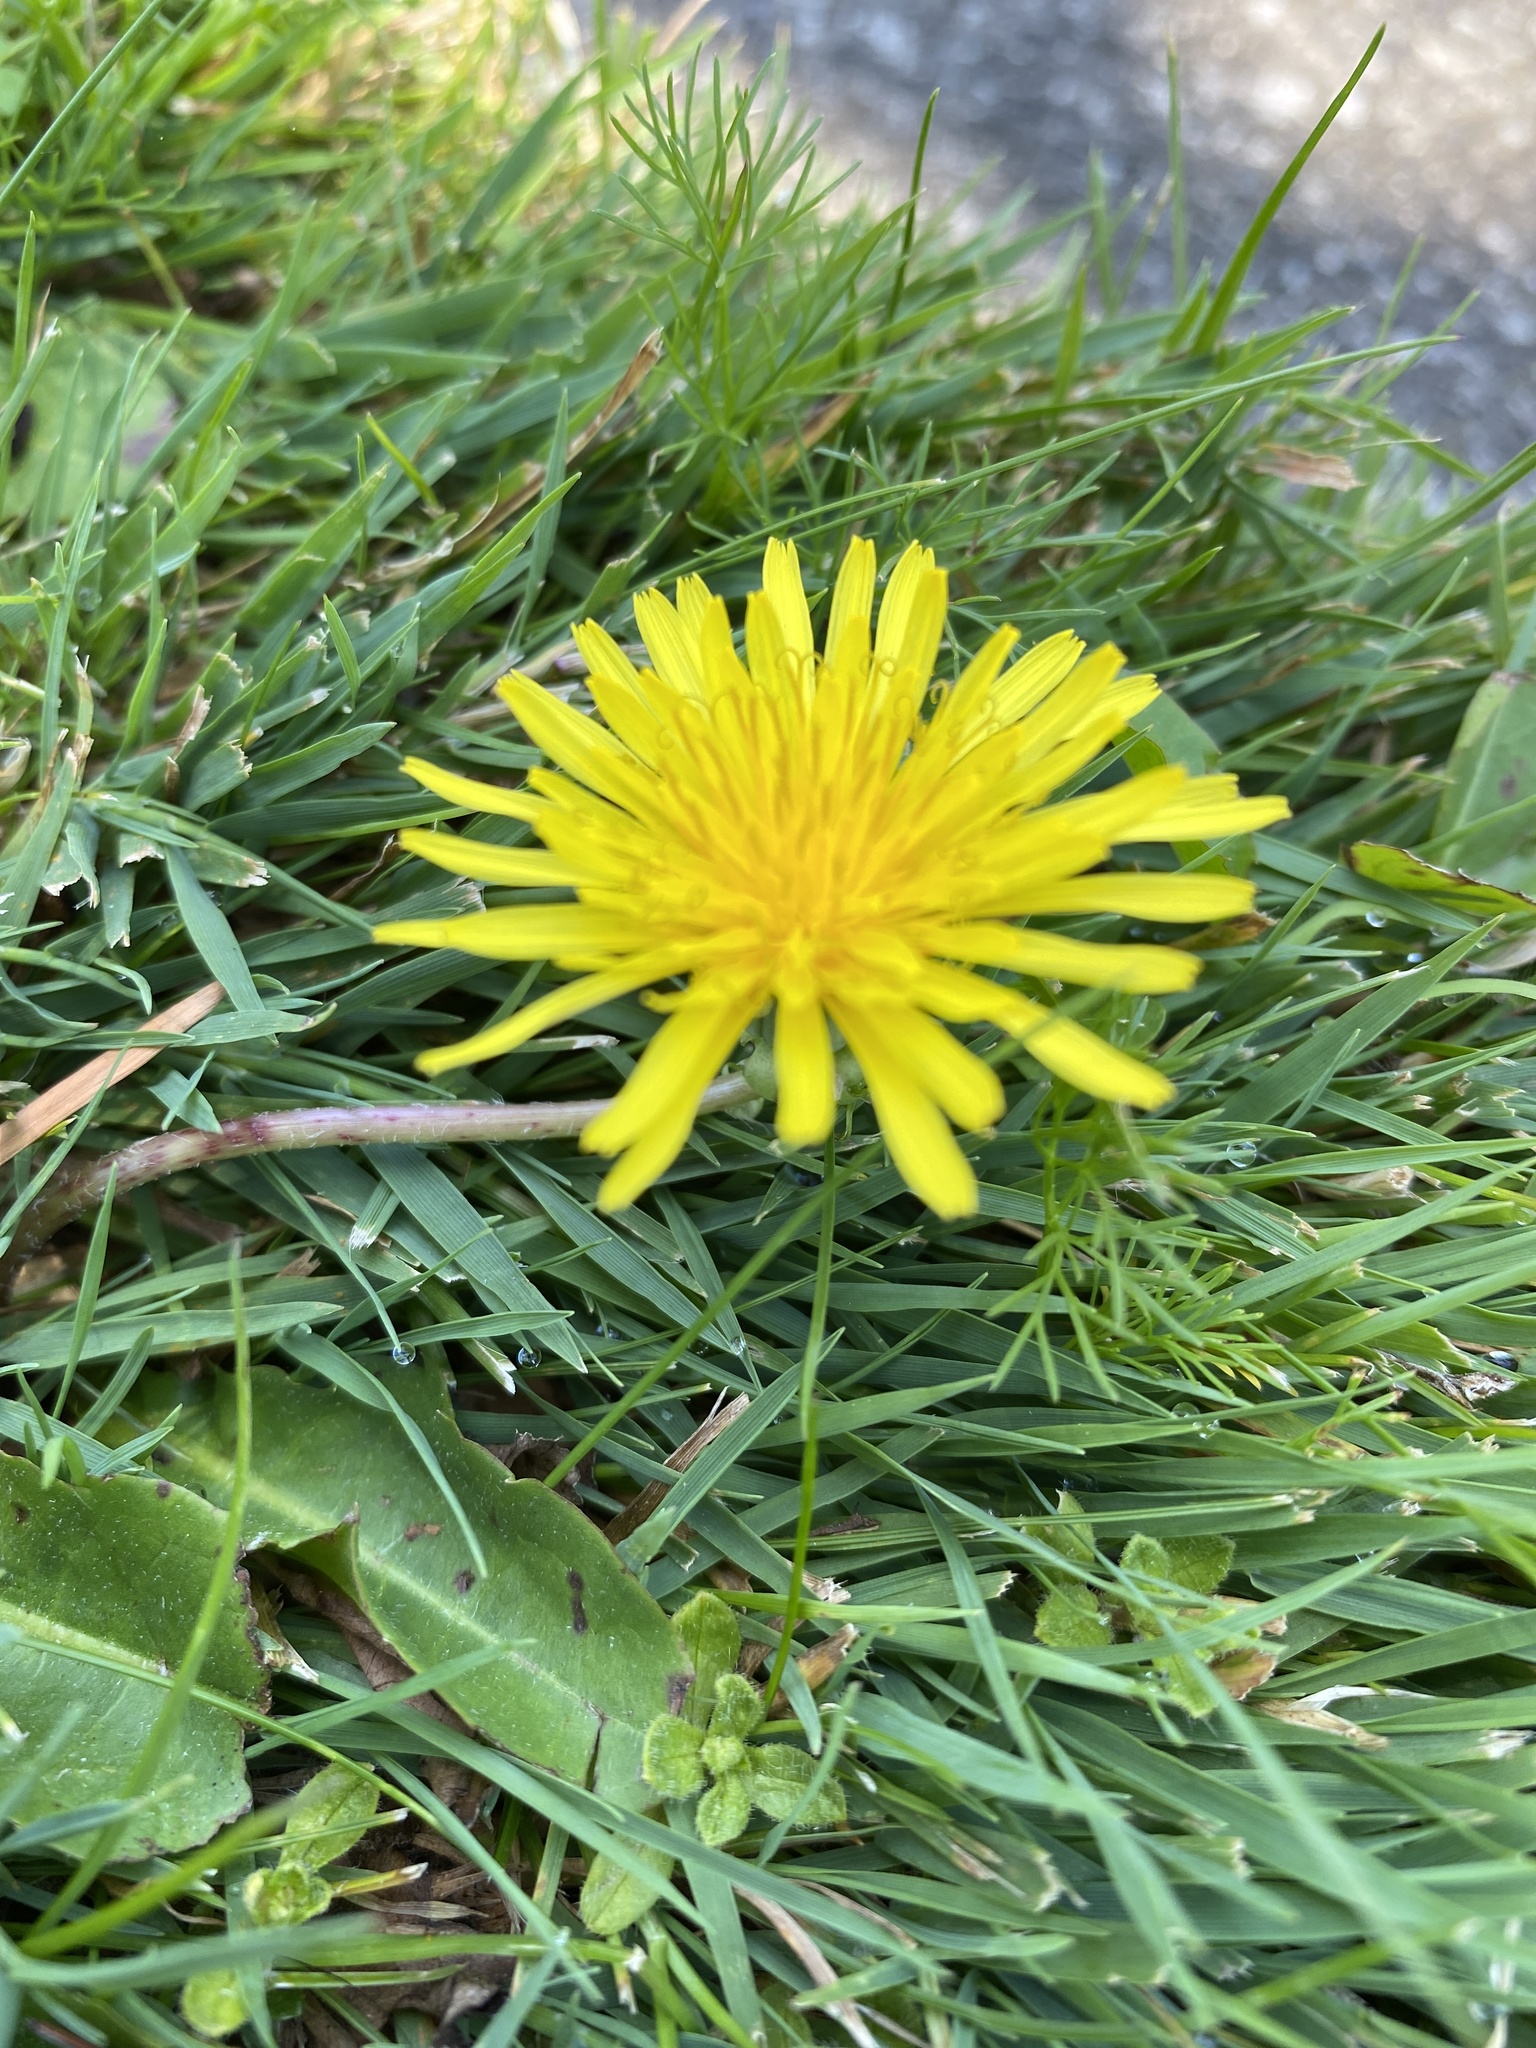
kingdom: Plantae
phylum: Tracheophyta
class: Magnoliopsida
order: Asterales
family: Asteraceae
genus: Taraxacum
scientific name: Taraxacum officinale
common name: Common dandelion
